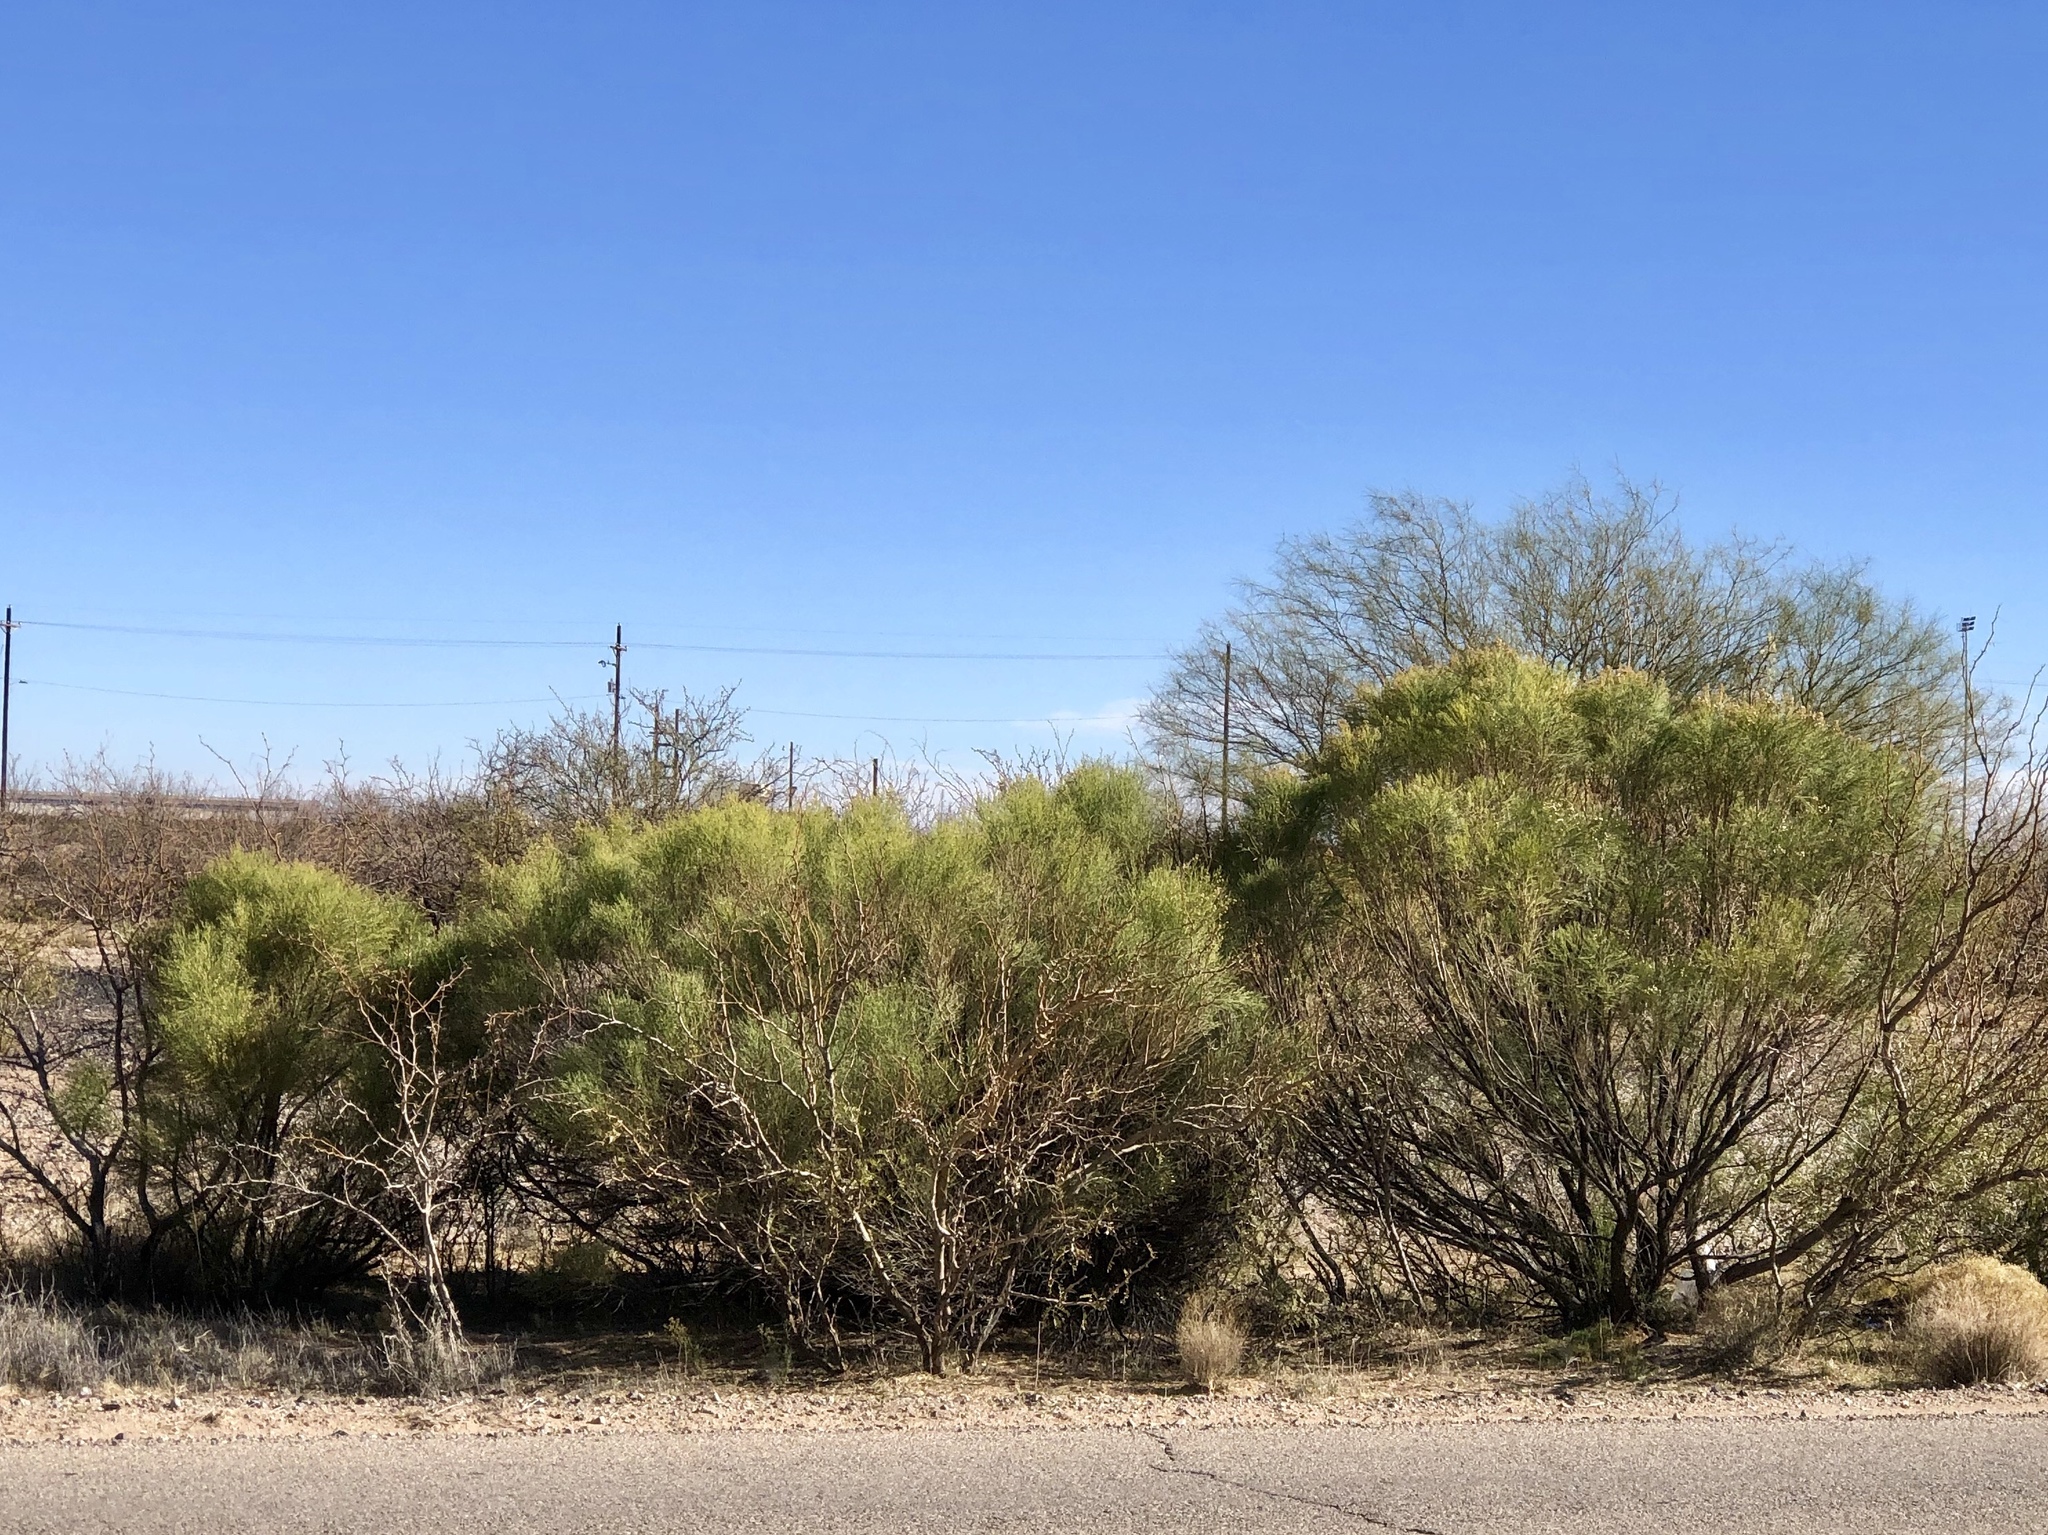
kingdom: Plantae
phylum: Tracheophyta
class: Magnoliopsida
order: Asterales
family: Asteraceae
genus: Baccharis
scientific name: Baccharis sarothroides
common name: Desert-broom
